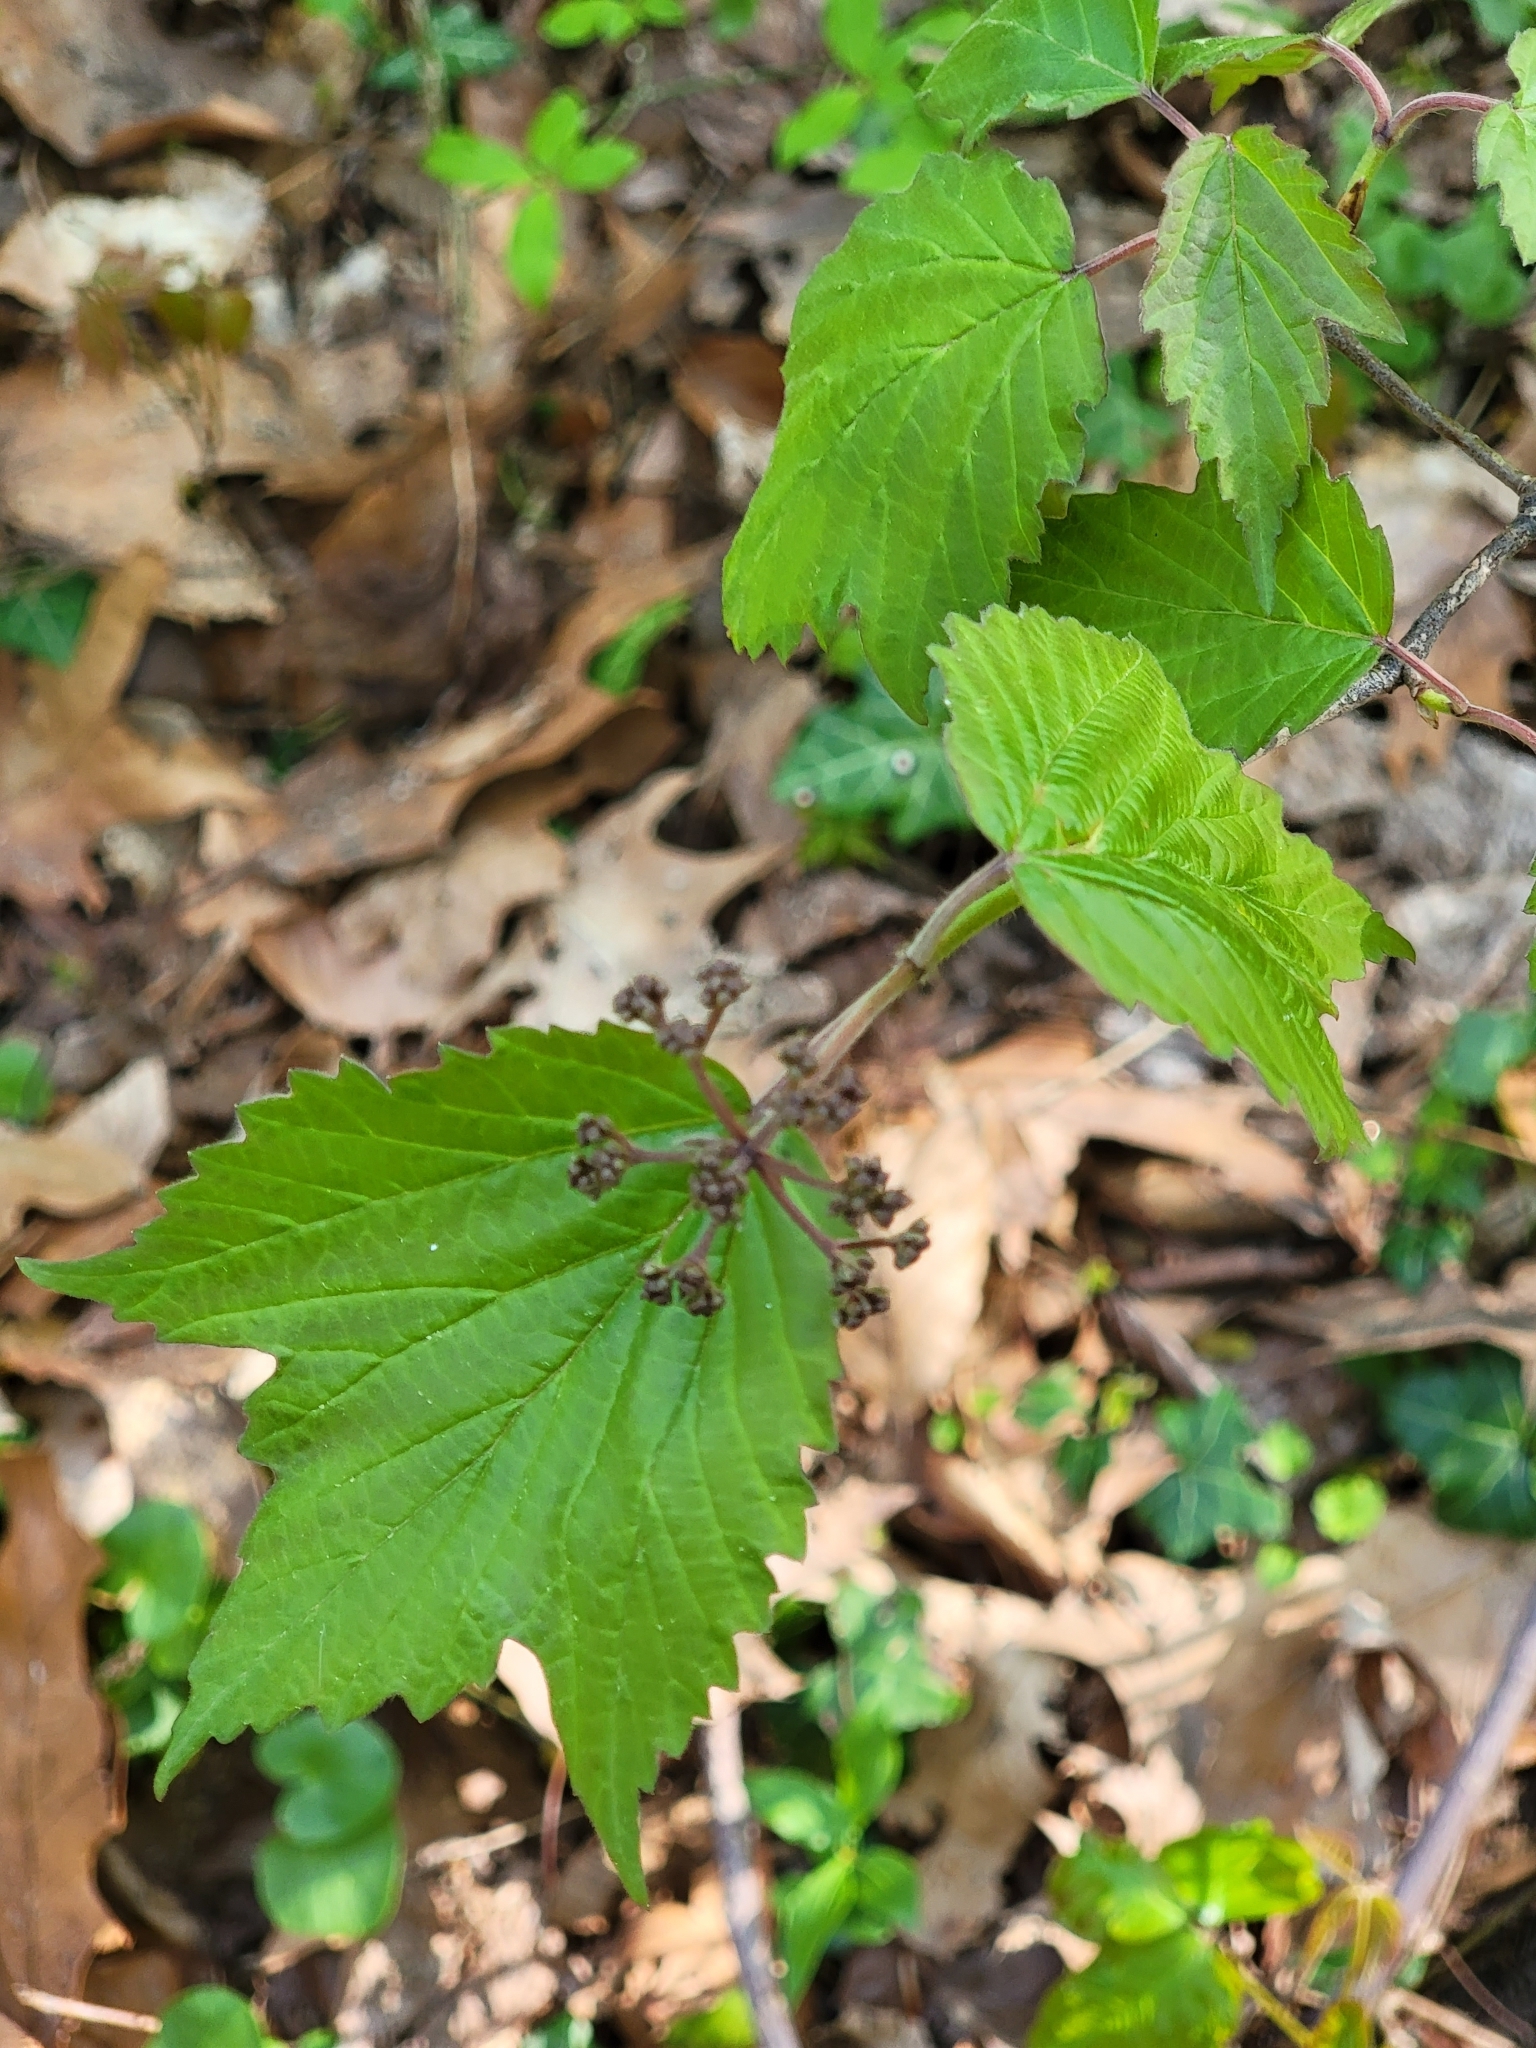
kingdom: Plantae
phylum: Tracheophyta
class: Magnoliopsida
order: Dipsacales
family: Viburnaceae
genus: Viburnum
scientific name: Viburnum acerifolium
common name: Dockmackie
